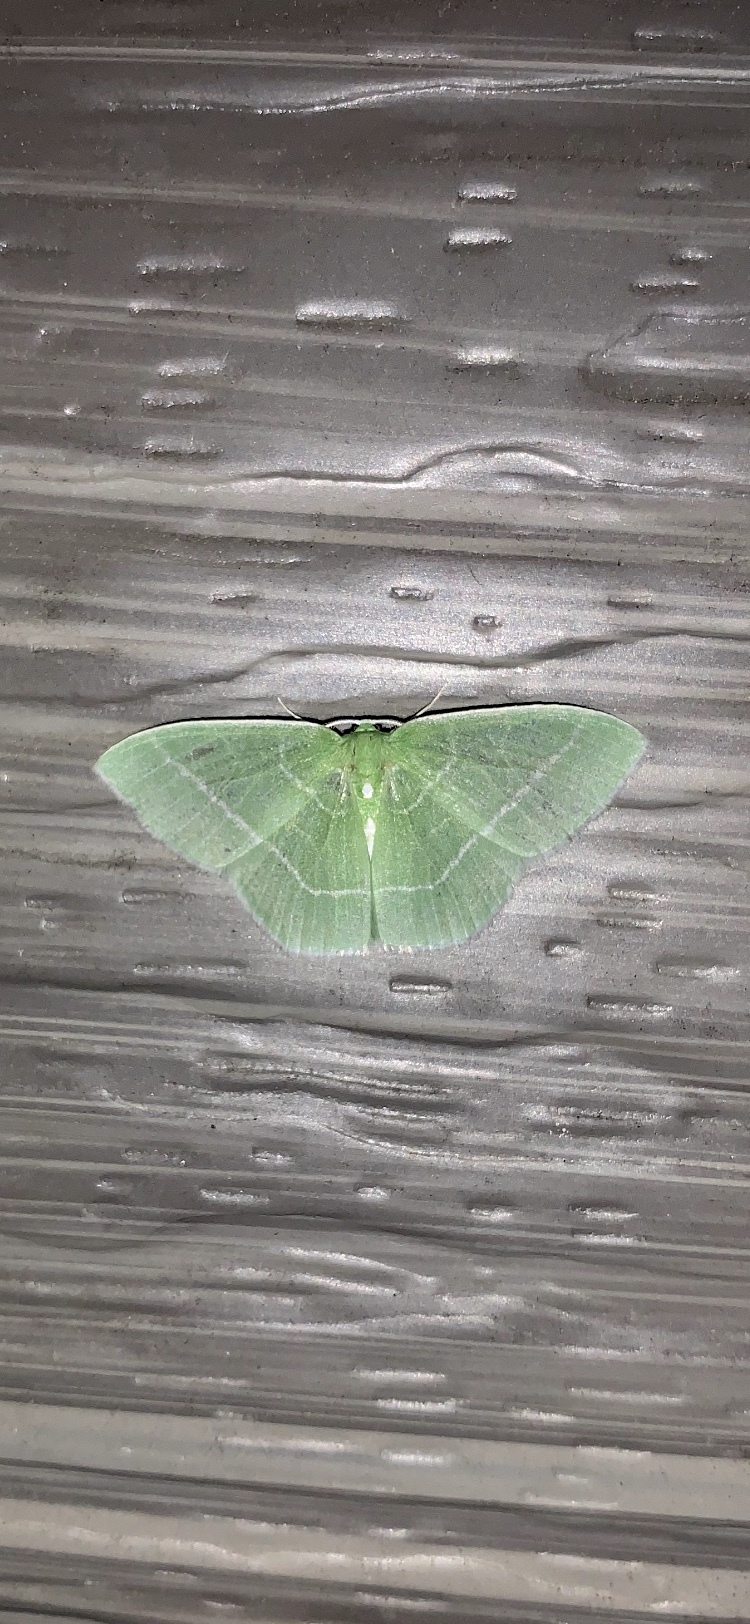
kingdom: Animalia
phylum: Arthropoda
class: Insecta
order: Lepidoptera
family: Geometridae
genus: Nemoria
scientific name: Nemoria mimosaria
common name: White-fringed emerald
